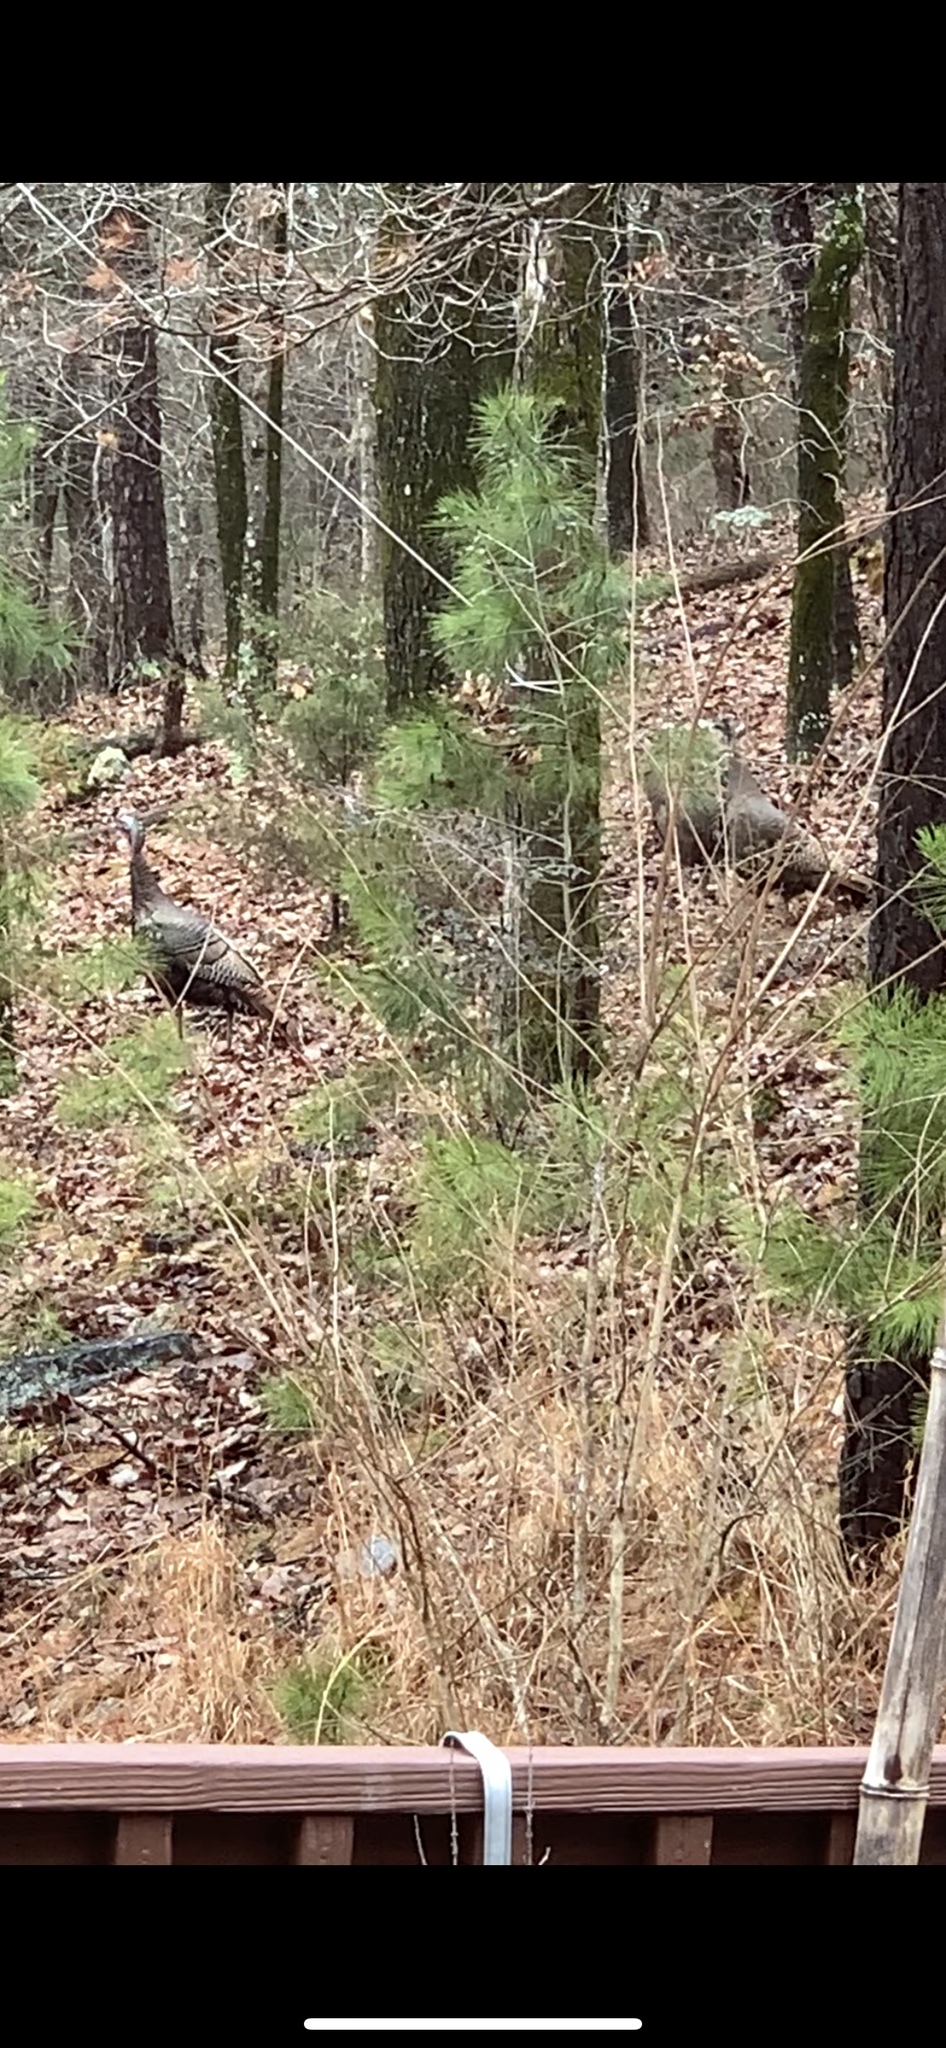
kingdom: Animalia
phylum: Chordata
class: Aves
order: Galliformes
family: Phasianidae
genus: Meleagris
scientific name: Meleagris gallopavo
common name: Wild turkey
